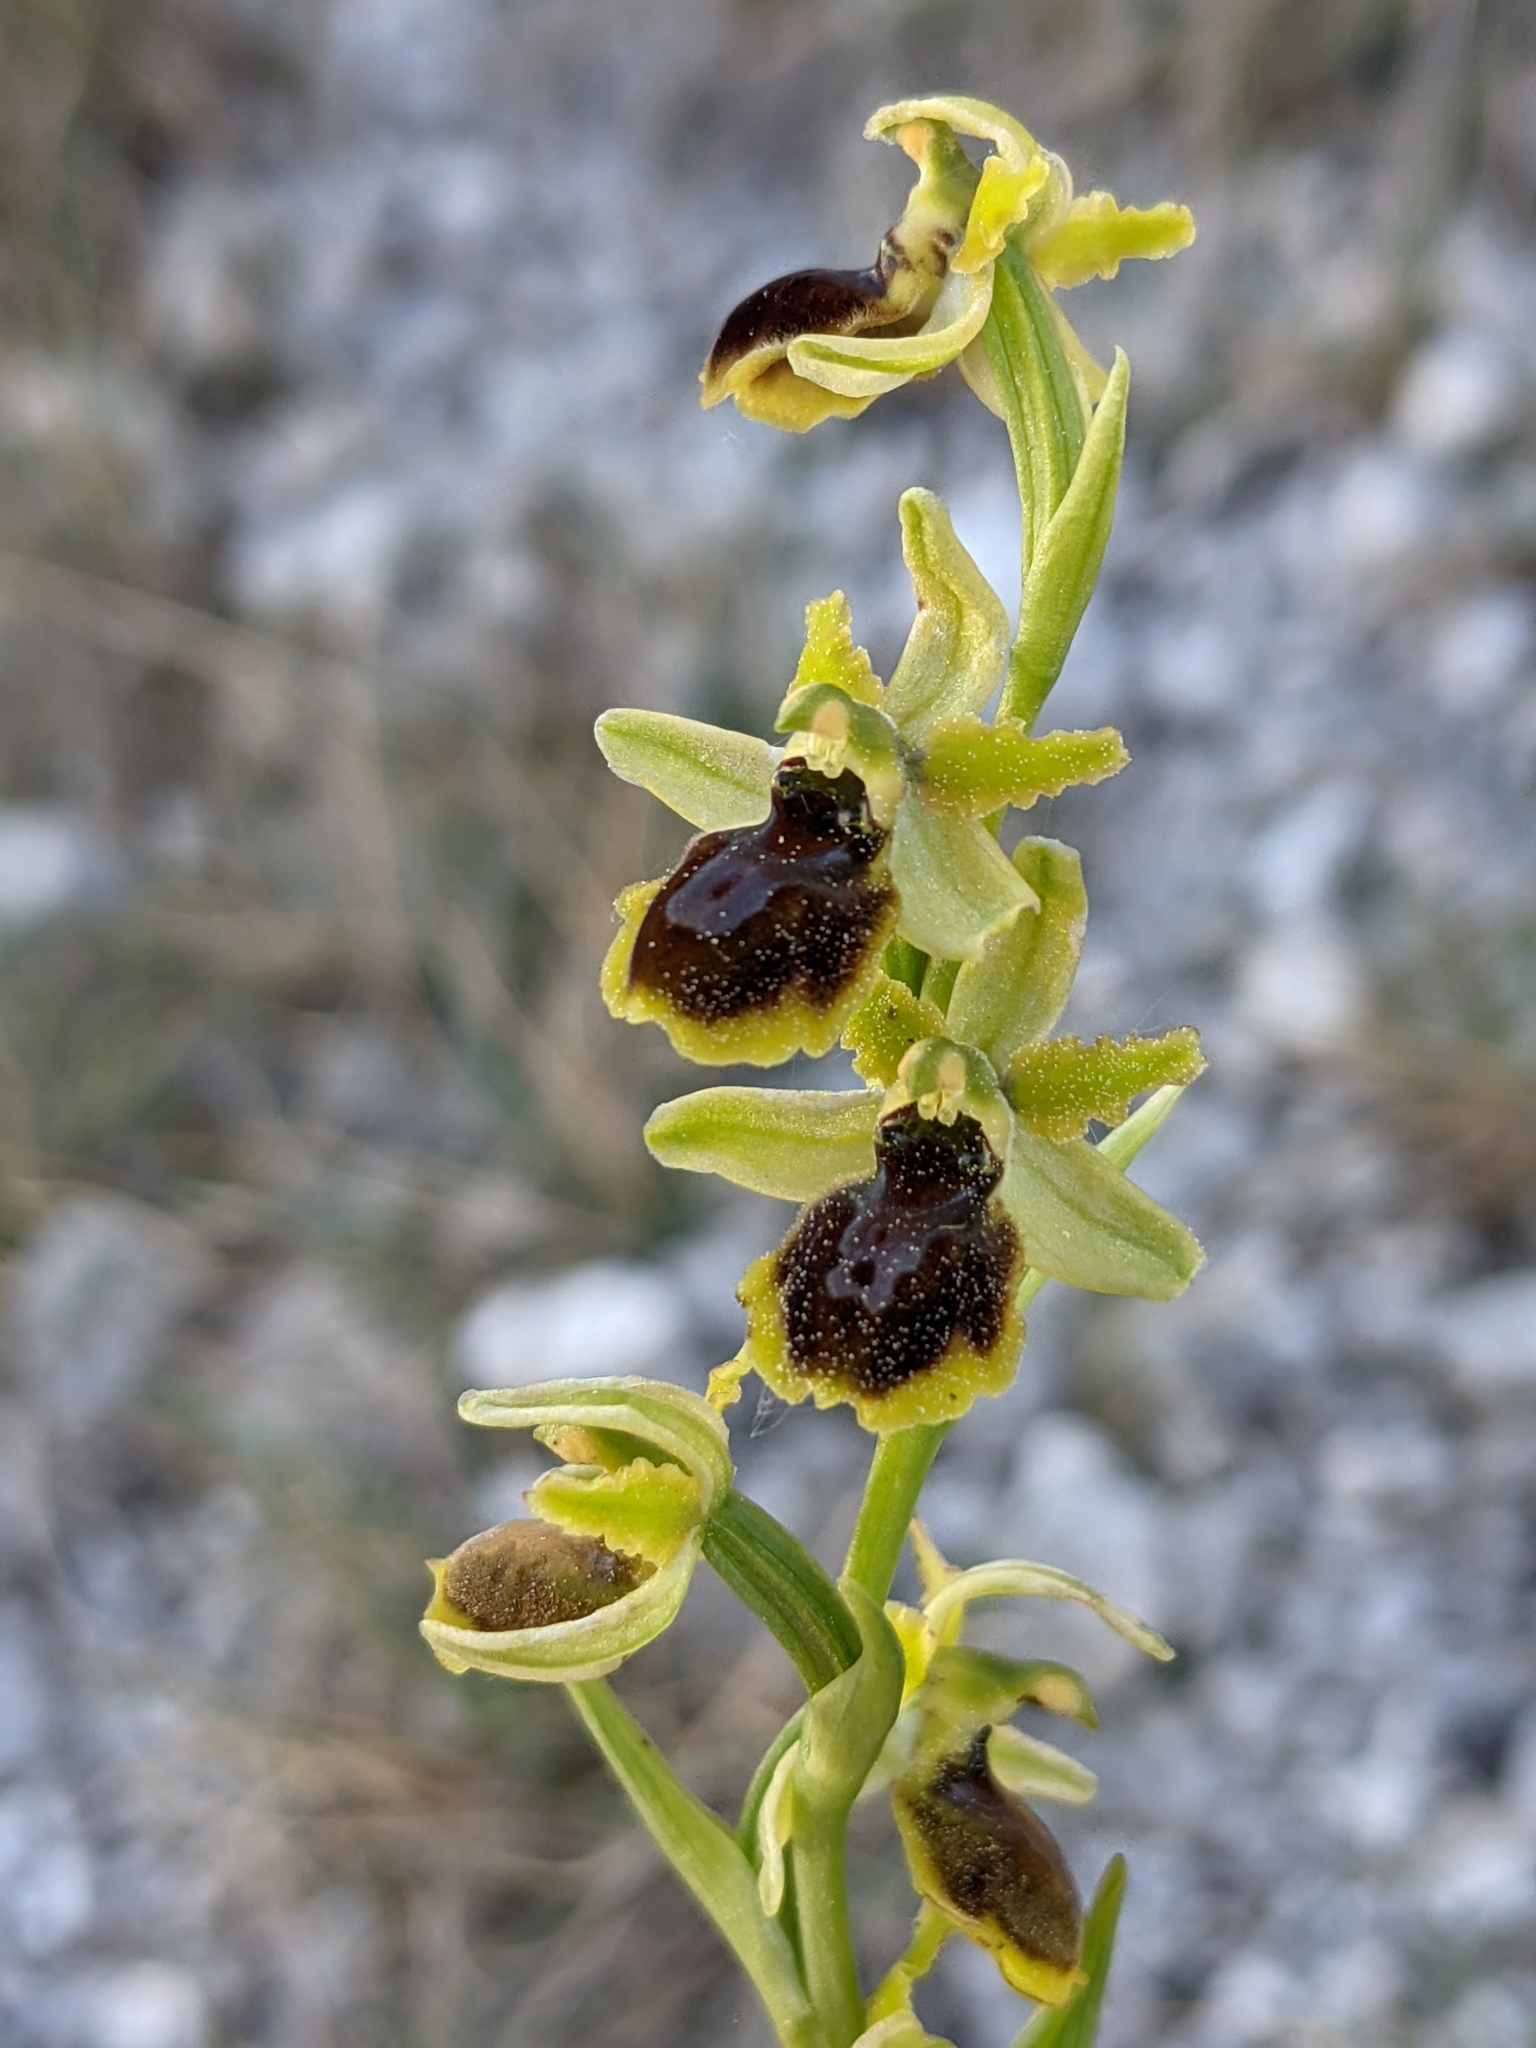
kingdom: Plantae
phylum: Tracheophyta
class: Liliopsida
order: Asparagales
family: Orchidaceae
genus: Ophrys
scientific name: Ophrys sphegodes
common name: Early spider-orchid
